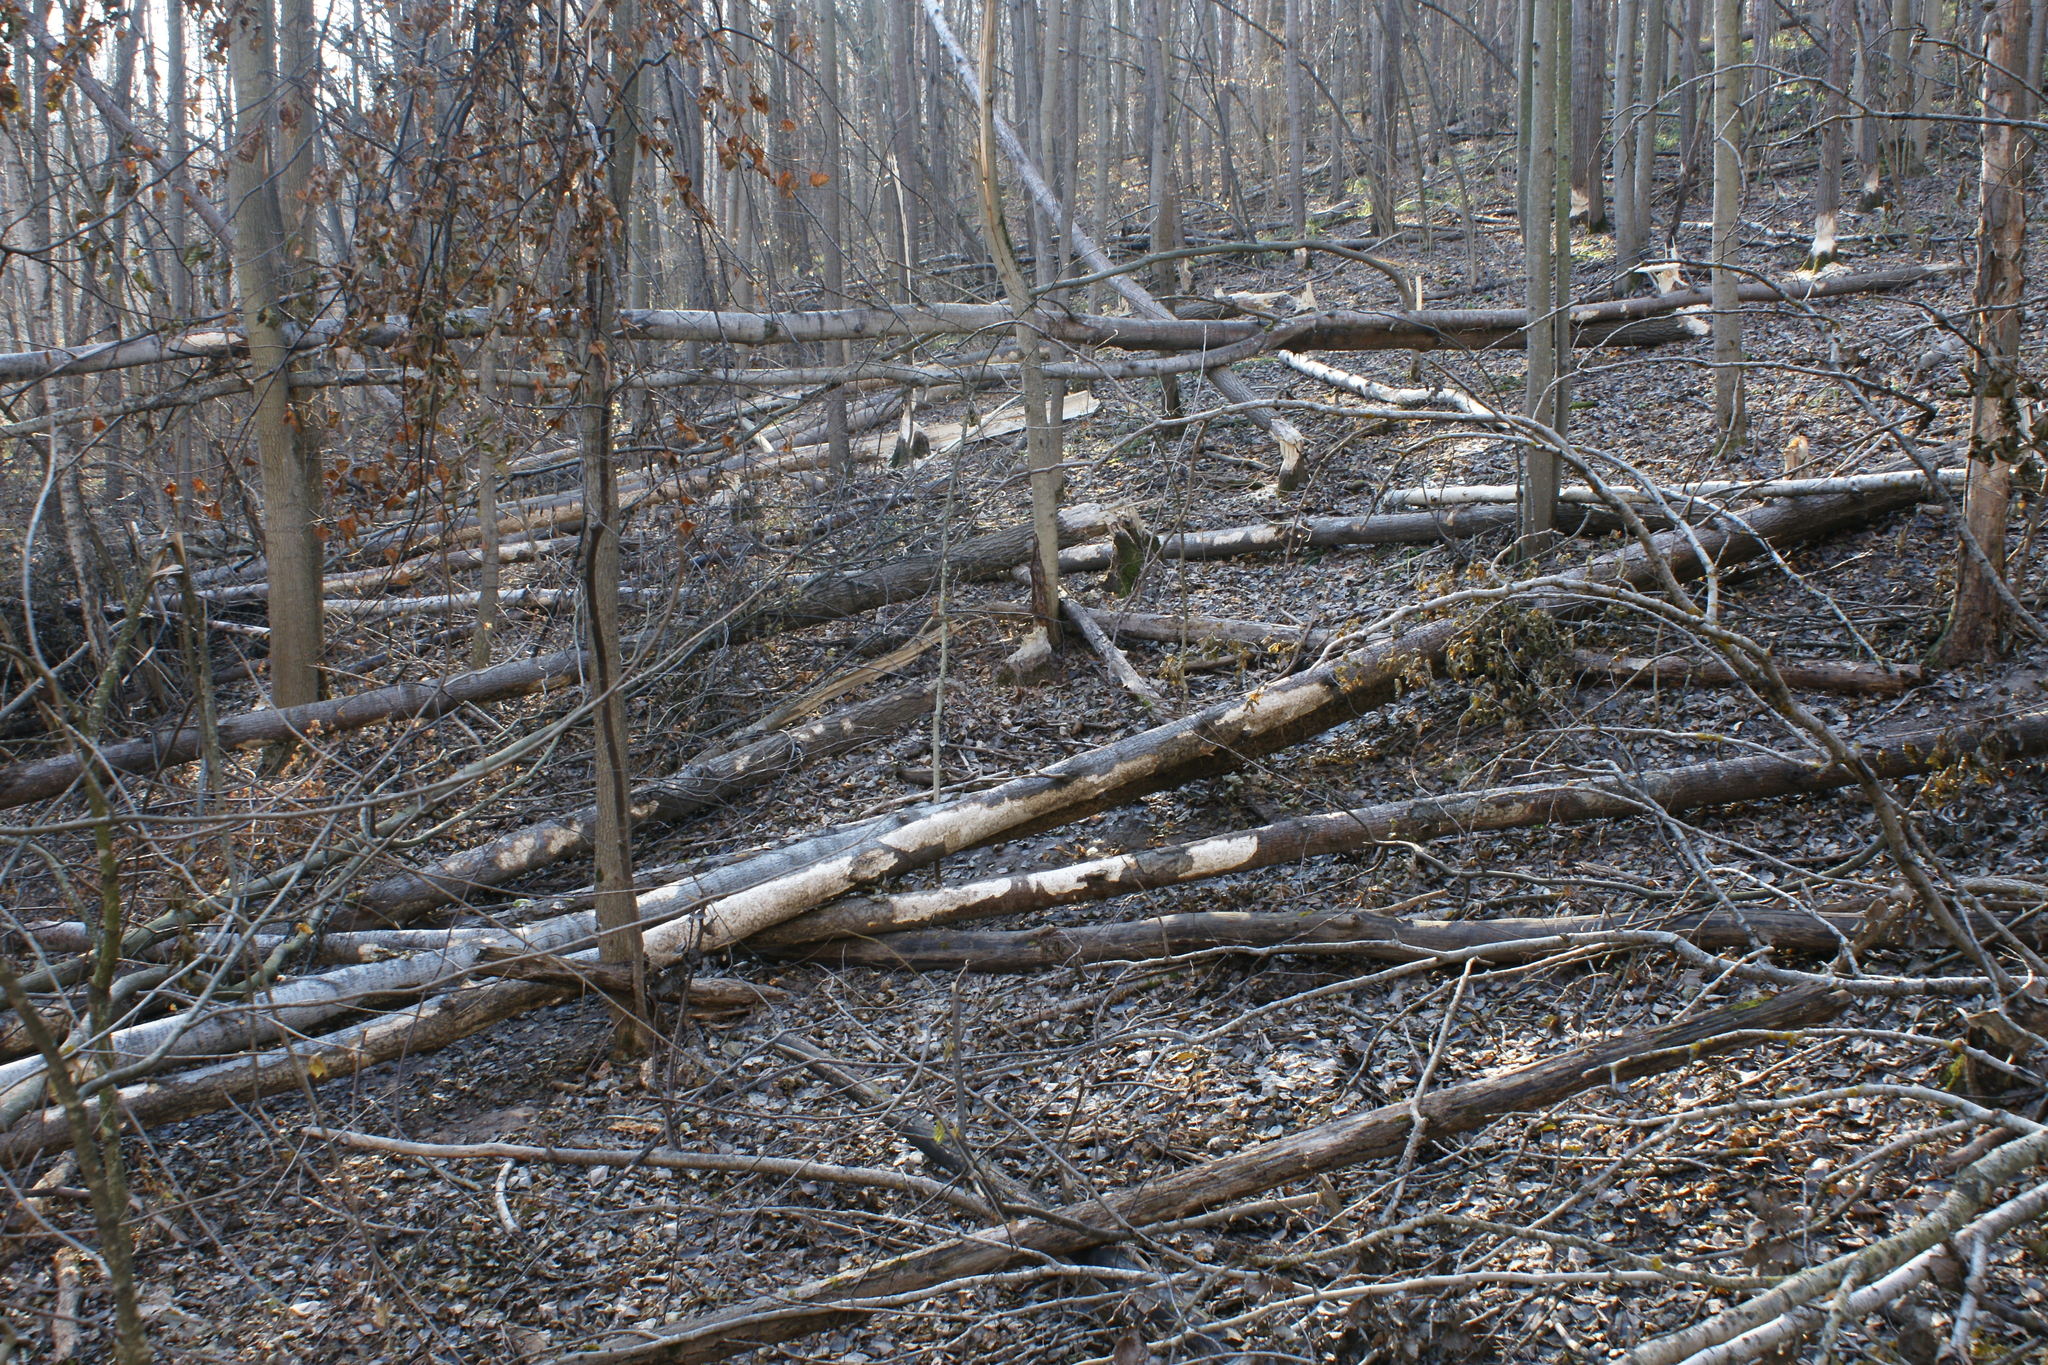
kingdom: Animalia
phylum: Chordata
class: Mammalia
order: Rodentia
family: Castoridae
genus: Castor
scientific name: Castor fiber
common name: Eurasian beaver
